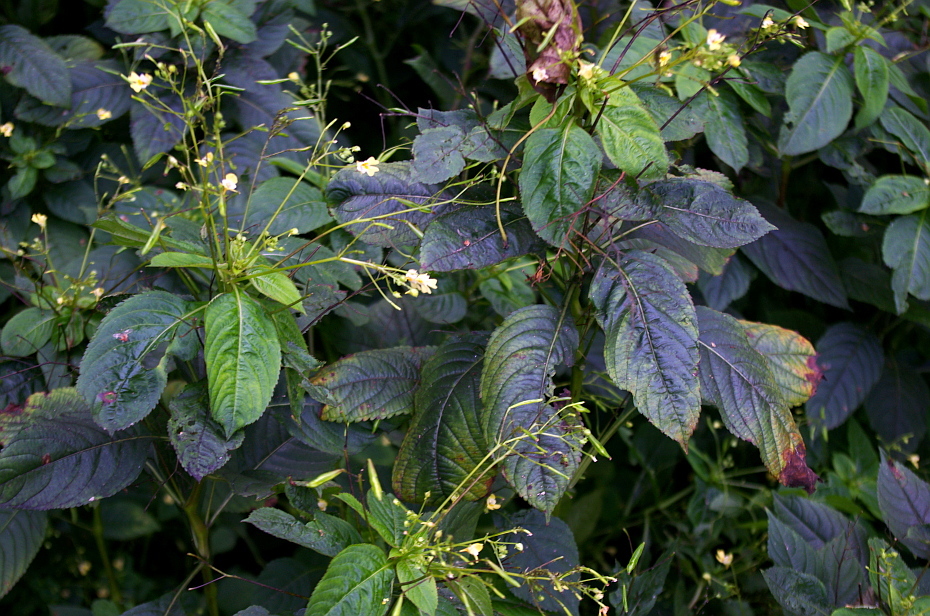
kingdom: Plantae
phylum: Tracheophyta
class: Magnoliopsida
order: Ericales
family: Balsaminaceae
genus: Impatiens
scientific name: Impatiens parviflora
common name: Small balsam
